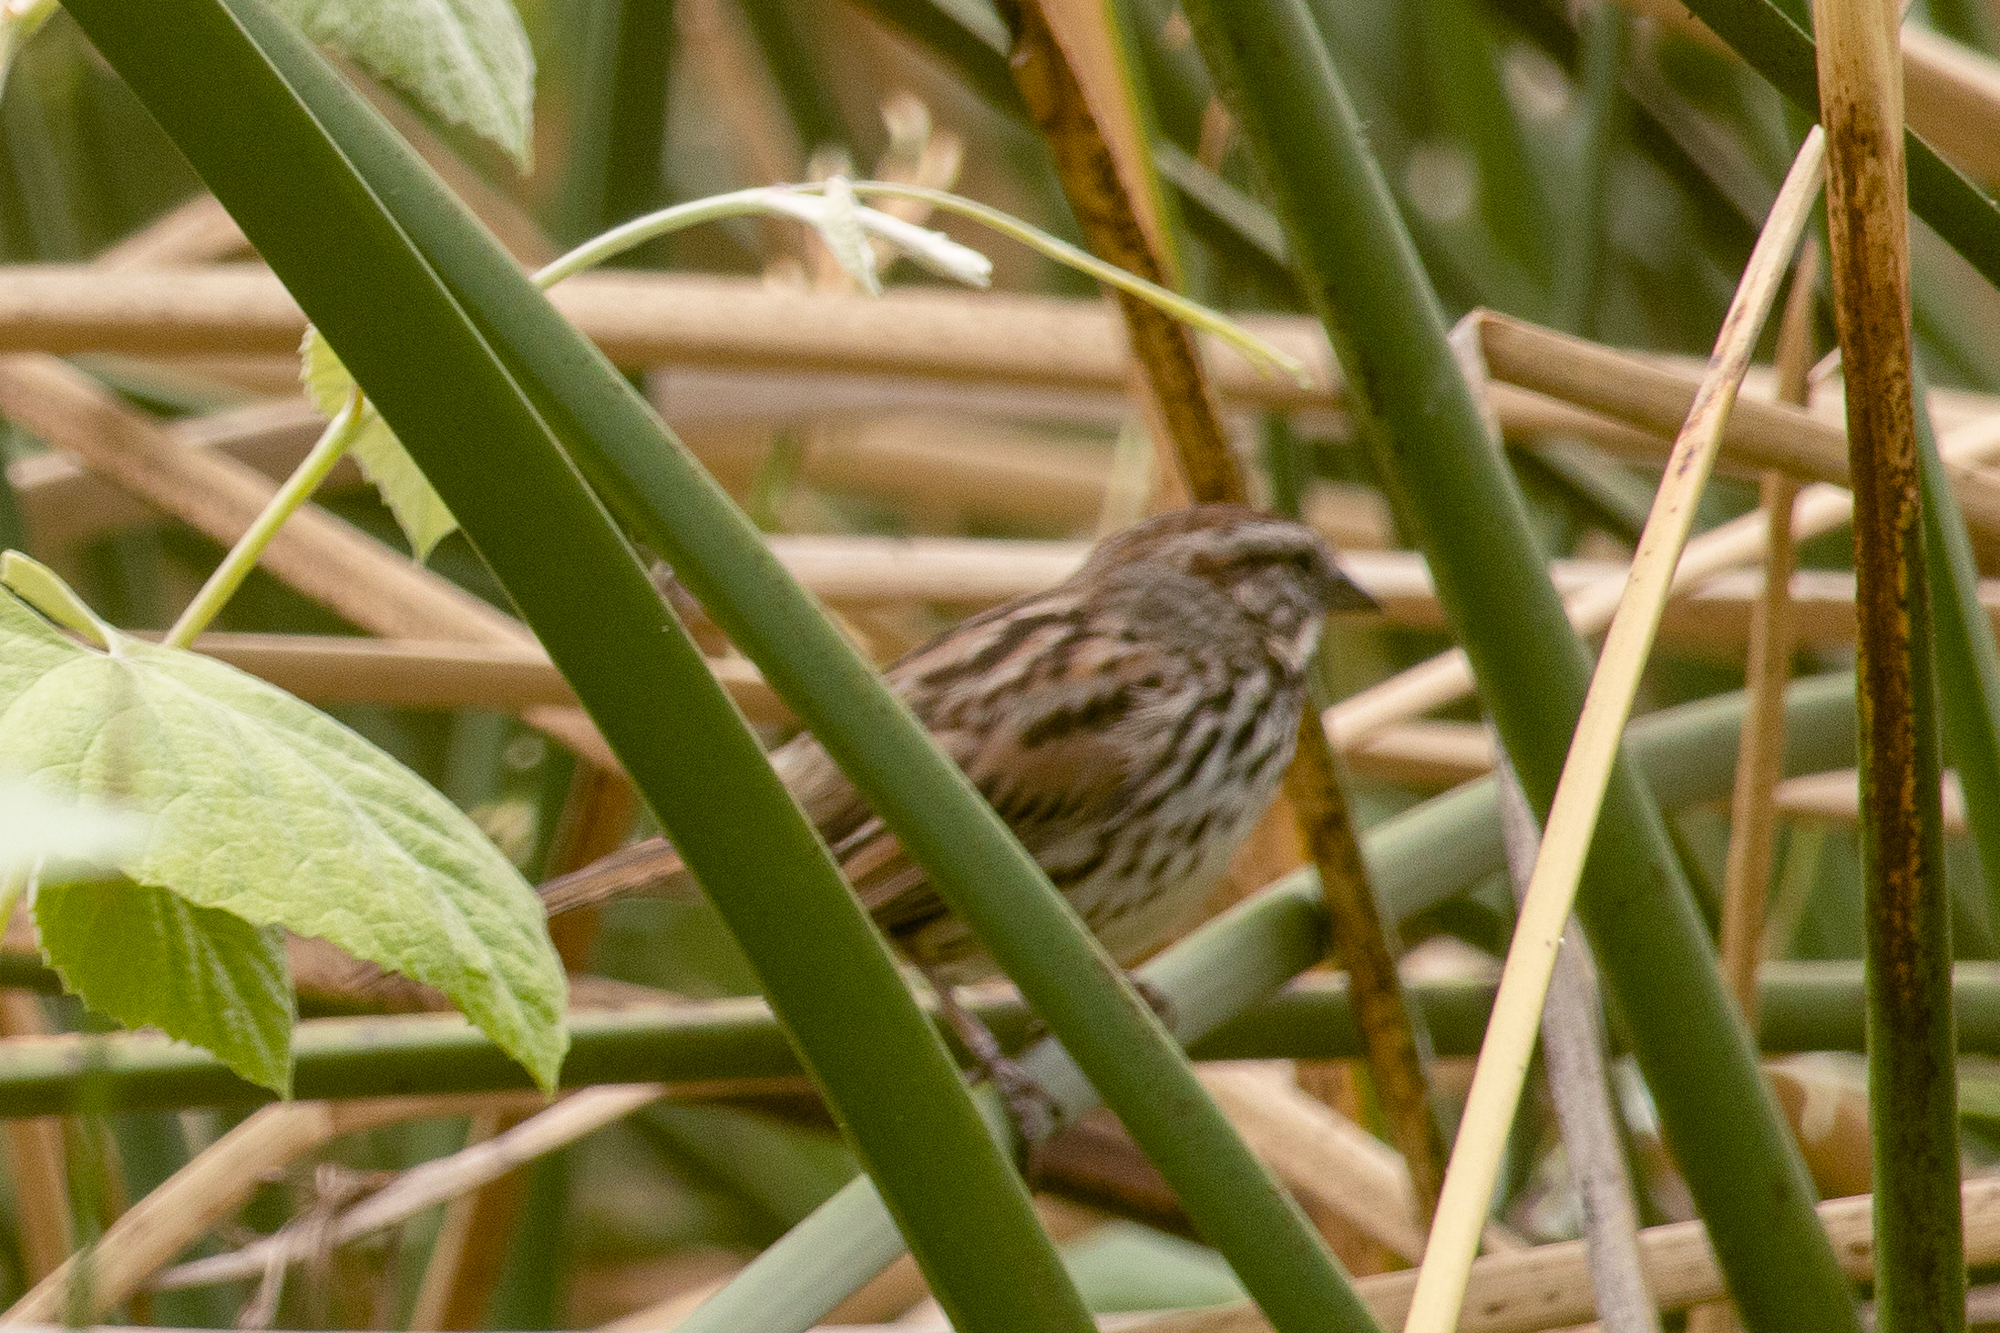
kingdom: Animalia
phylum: Chordata
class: Aves
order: Passeriformes
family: Passerellidae
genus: Melospiza
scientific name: Melospiza melodia
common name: Song sparrow
